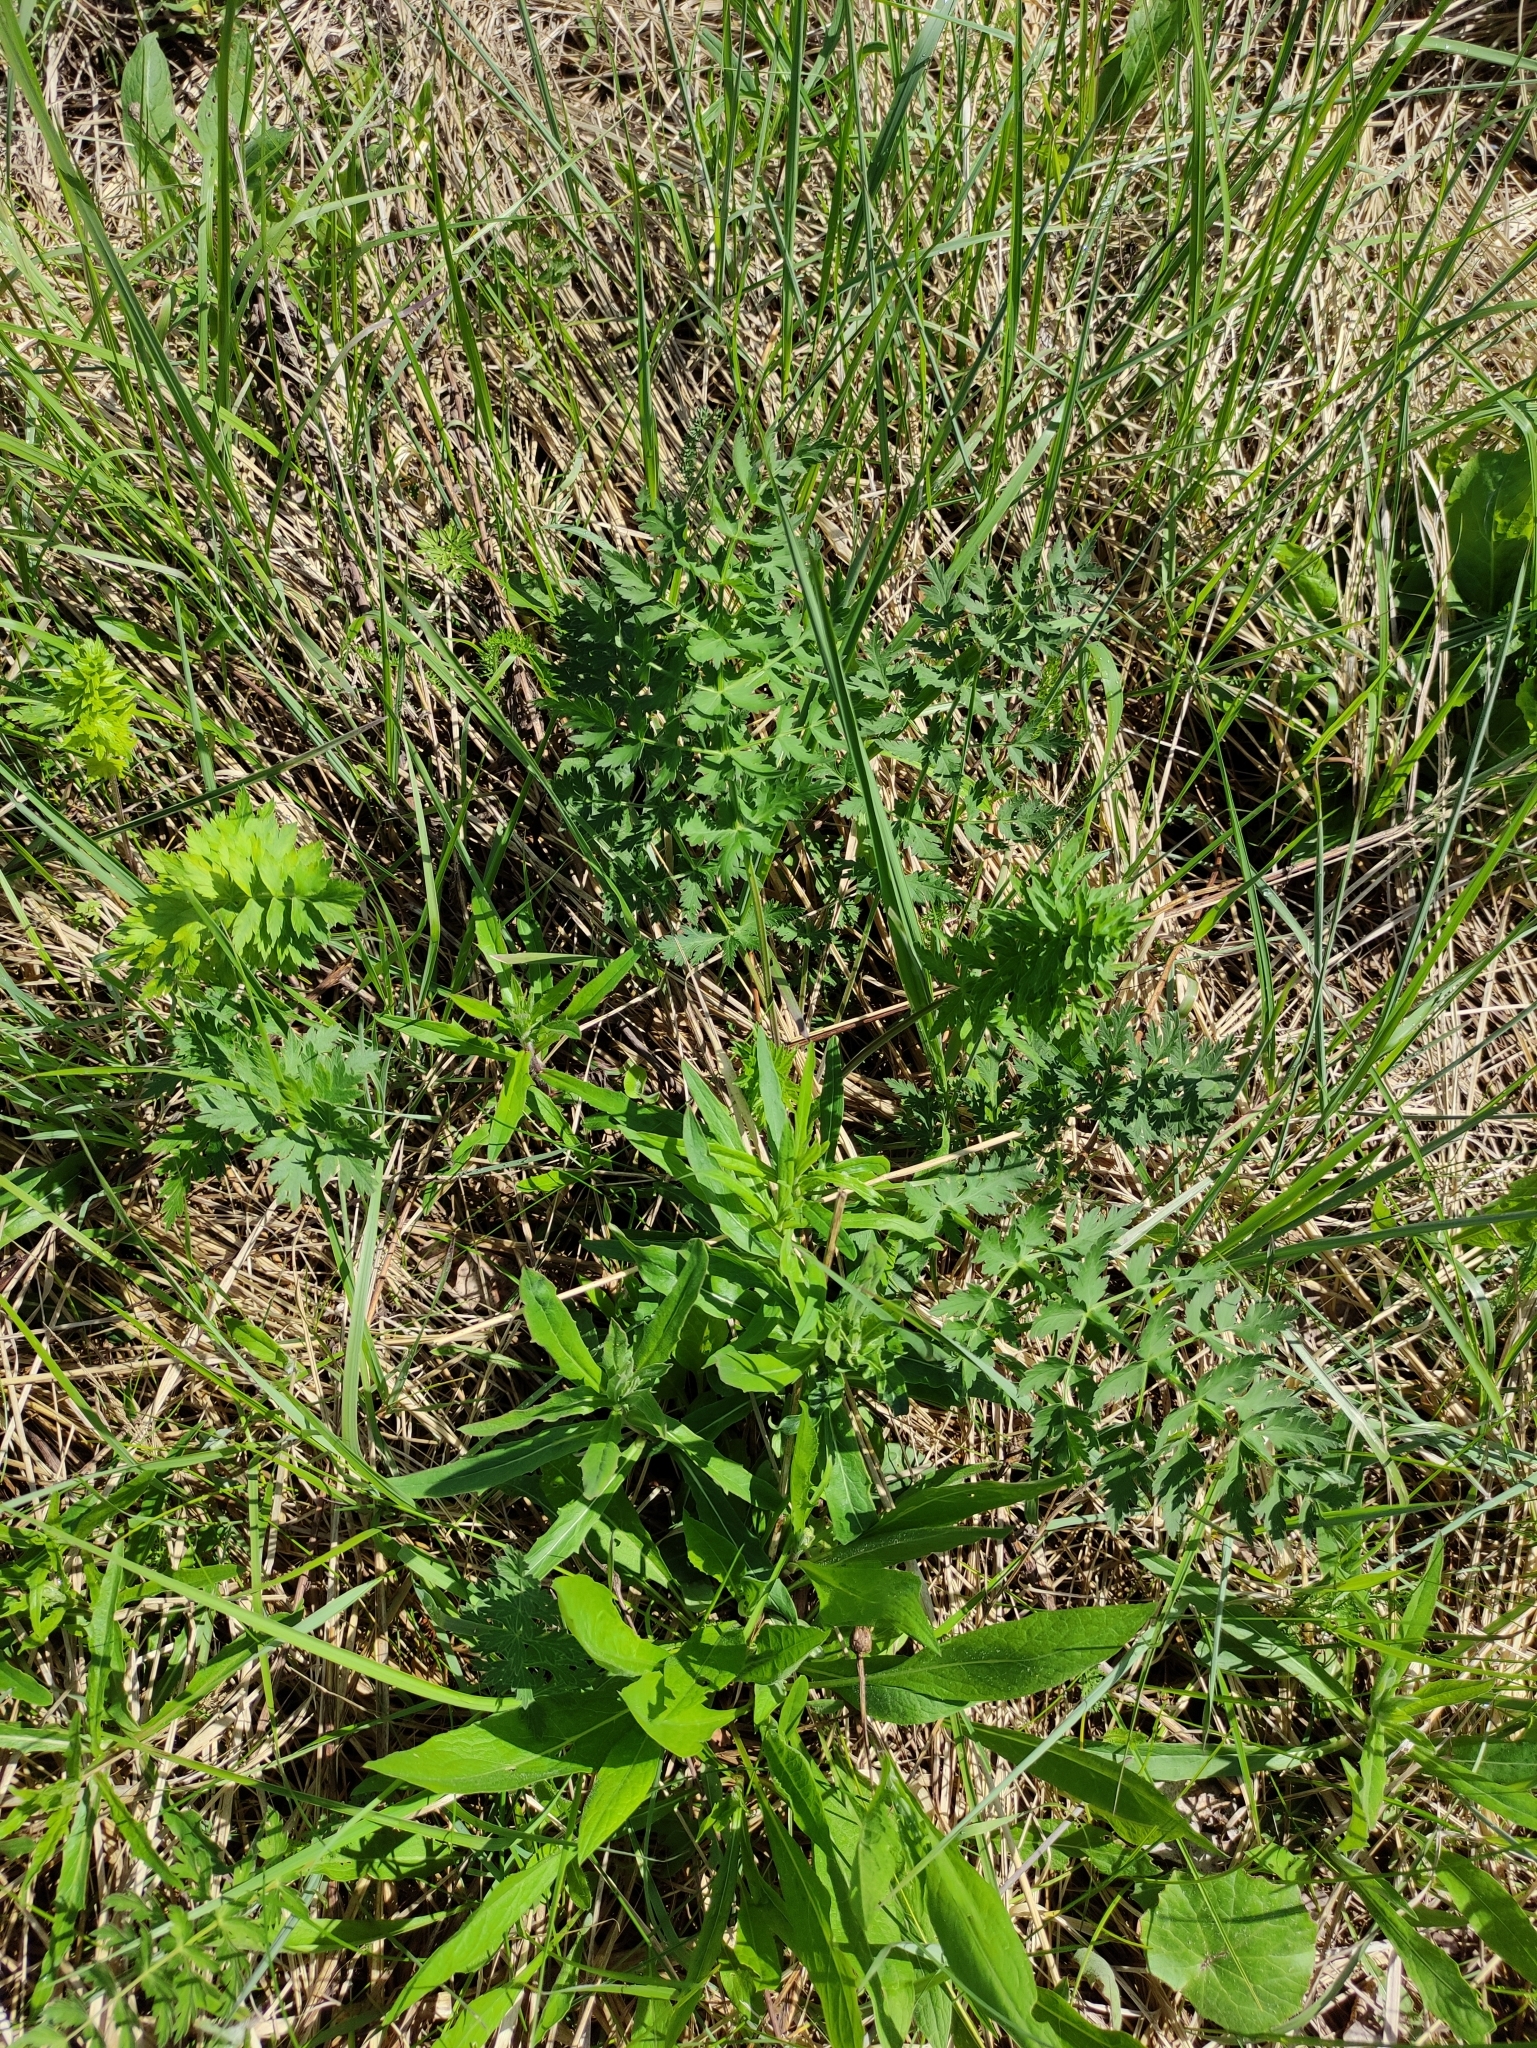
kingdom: Plantae
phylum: Tracheophyta
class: Magnoliopsida
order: Apiales
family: Apiaceae
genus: Seseli
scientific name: Seseli libanotis
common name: Mooncarrot
